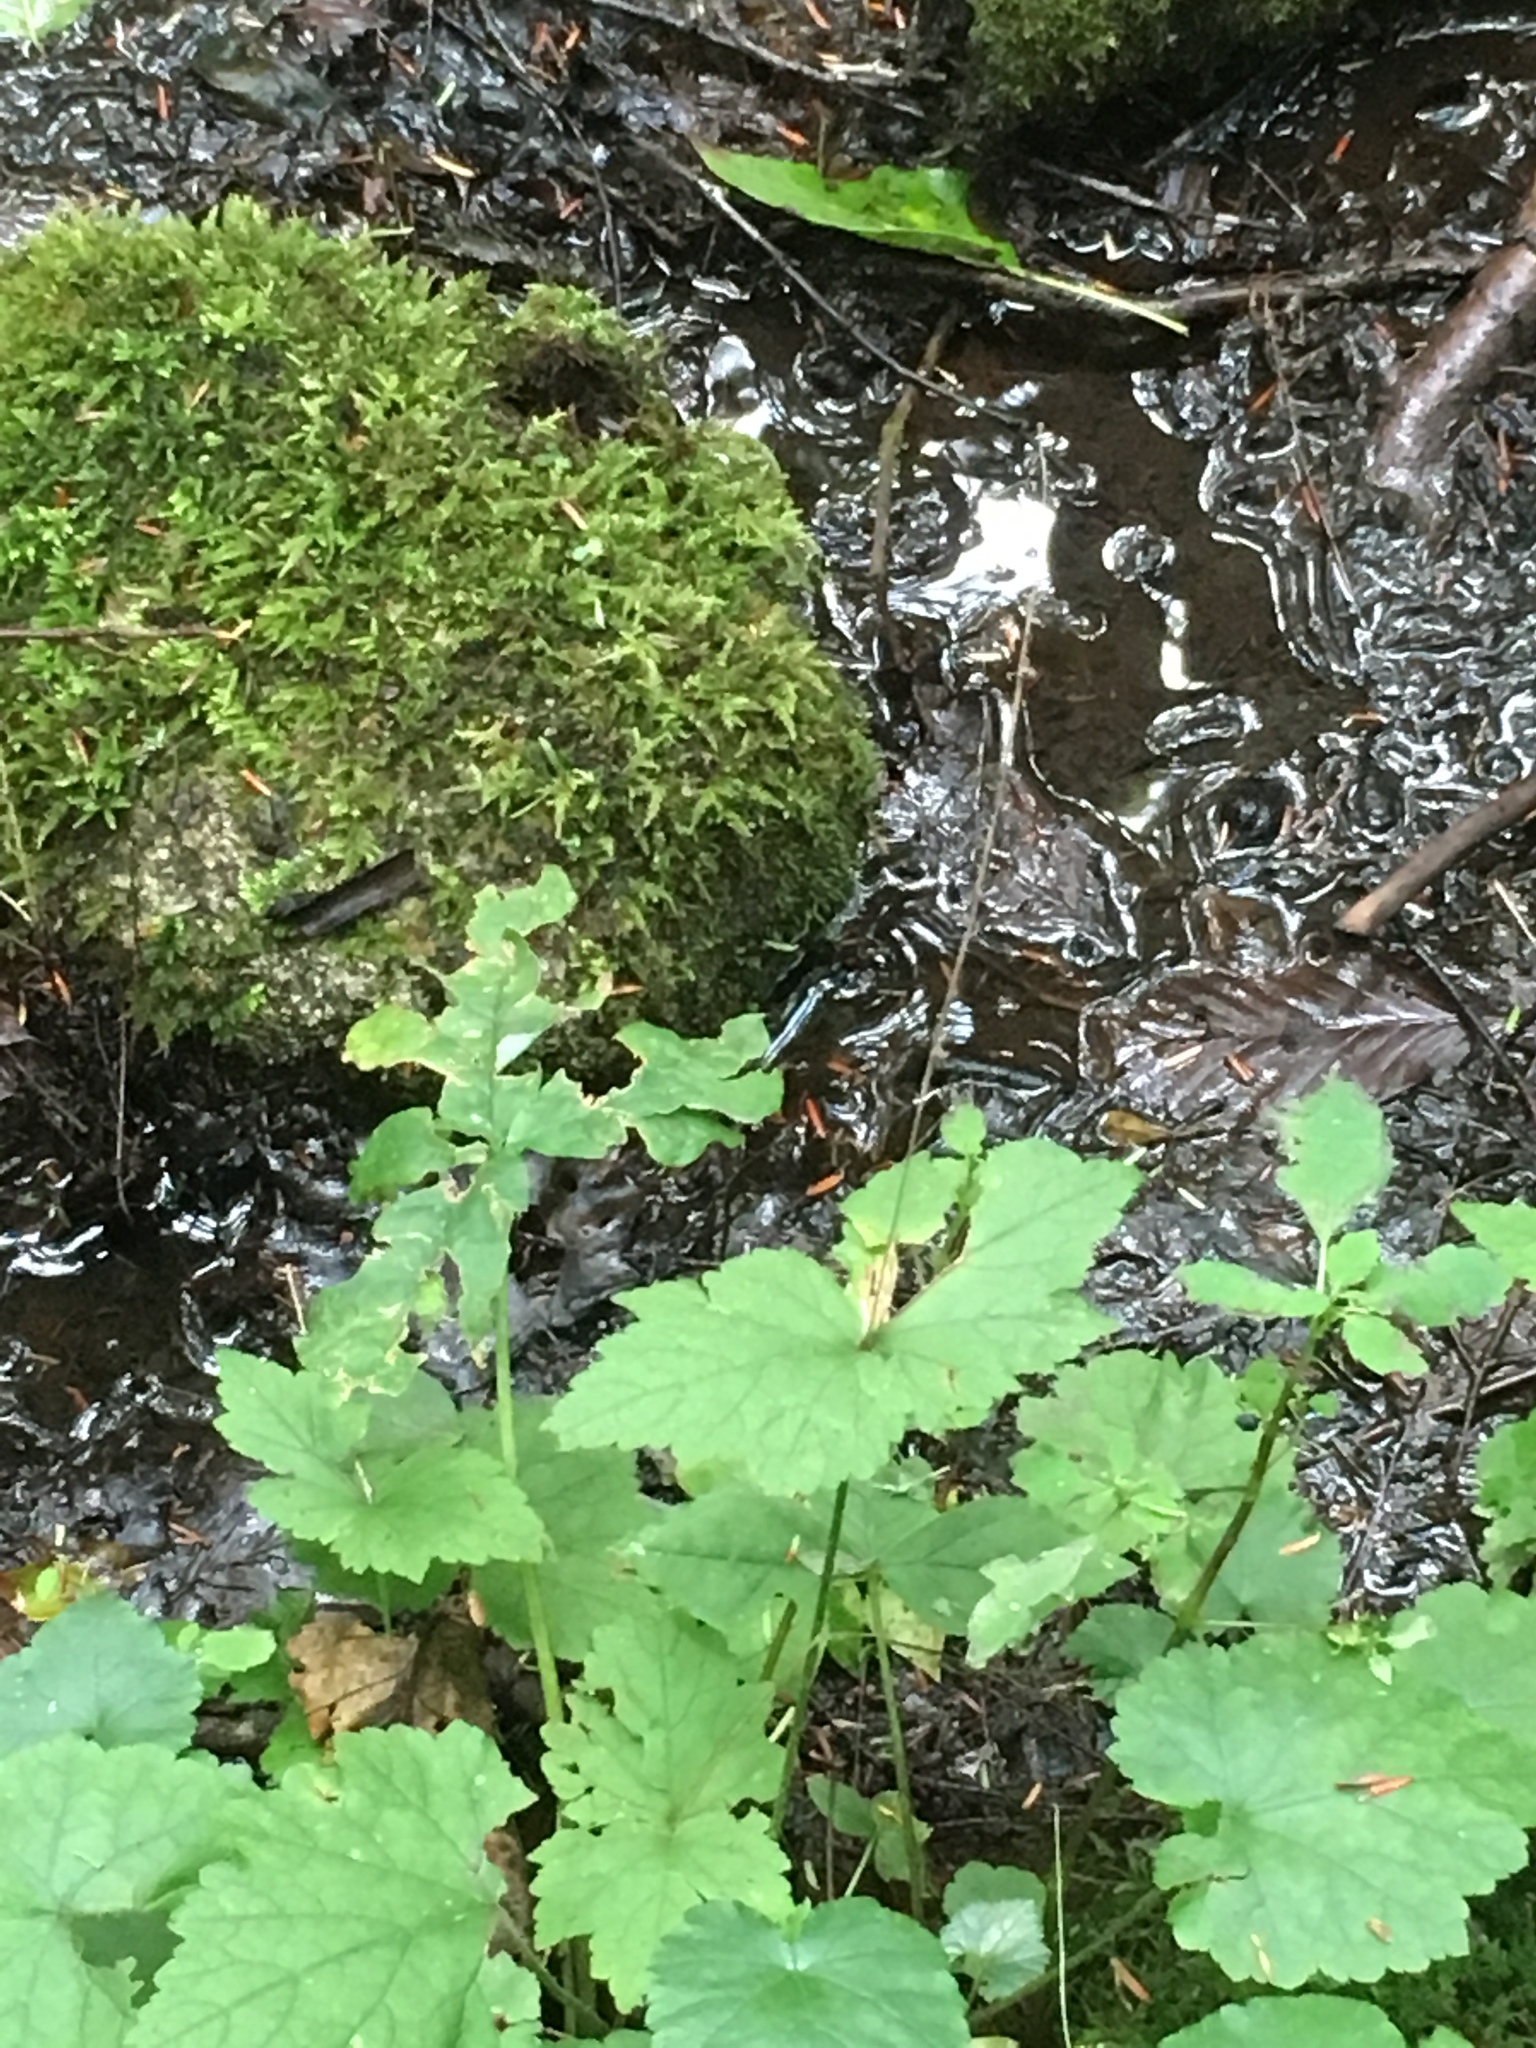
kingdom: Plantae
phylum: Tracheophyta
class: Magnoliopsida
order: Saxifragales
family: Saxifragaceae
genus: Mitella
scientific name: Mitella diphylla
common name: Coolwort
